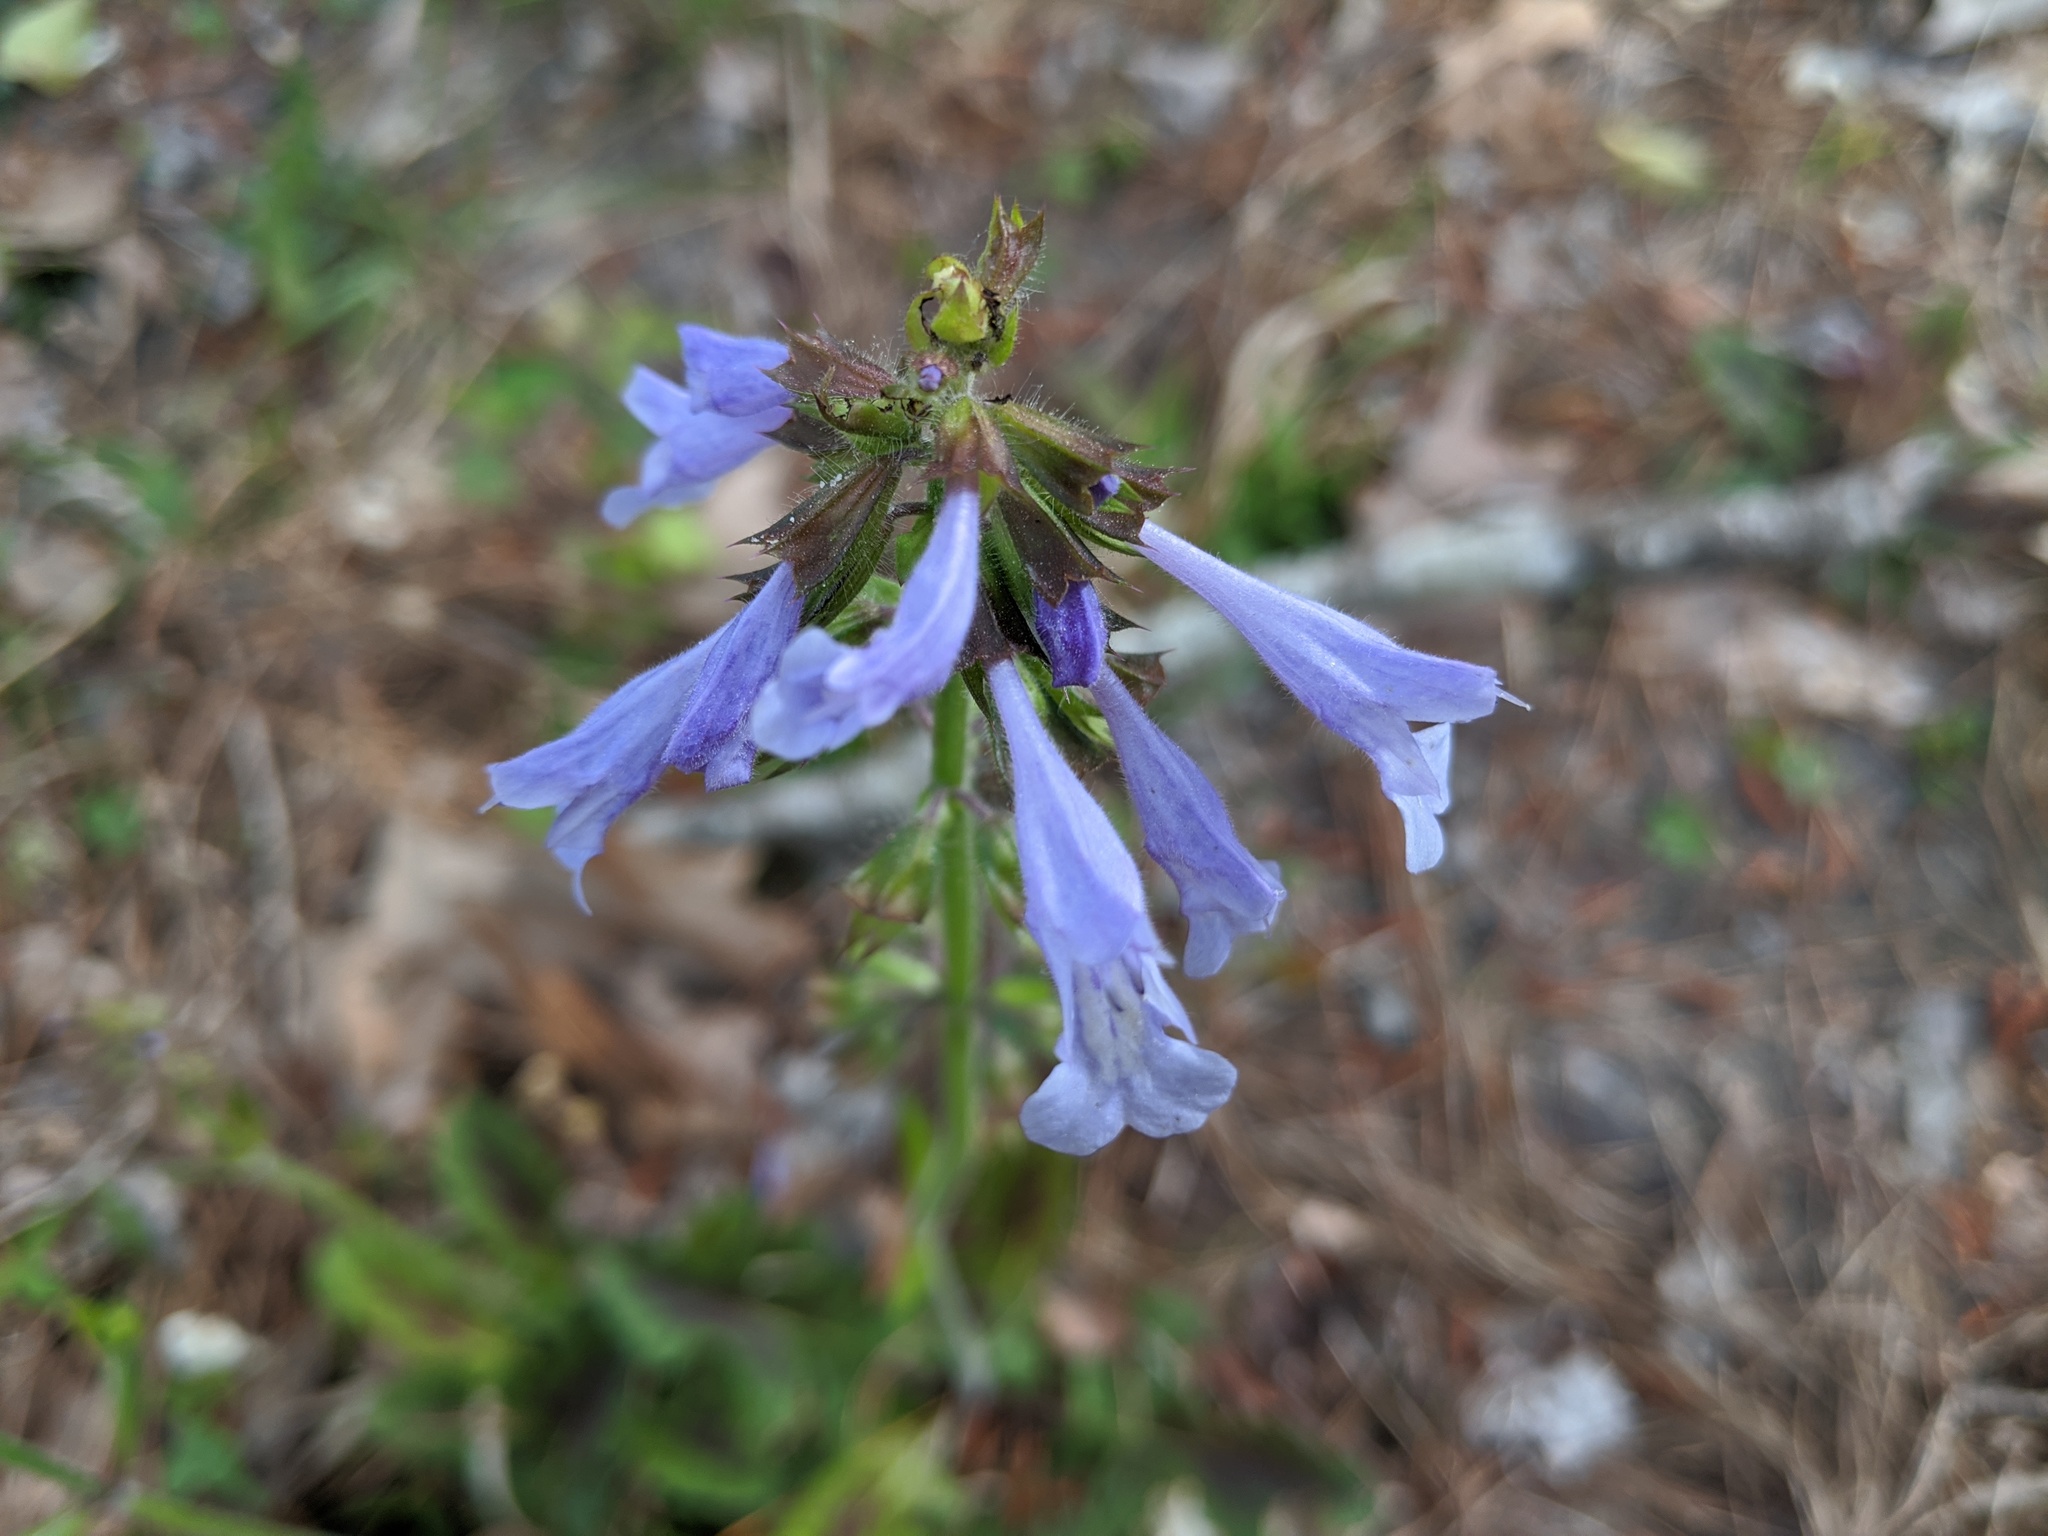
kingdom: Plantae
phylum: Tracheophyta
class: Magnoliopsida
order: Lamiales
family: Lamiaceae
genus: Salvia
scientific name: Salvia lyrata
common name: Cancerweed
